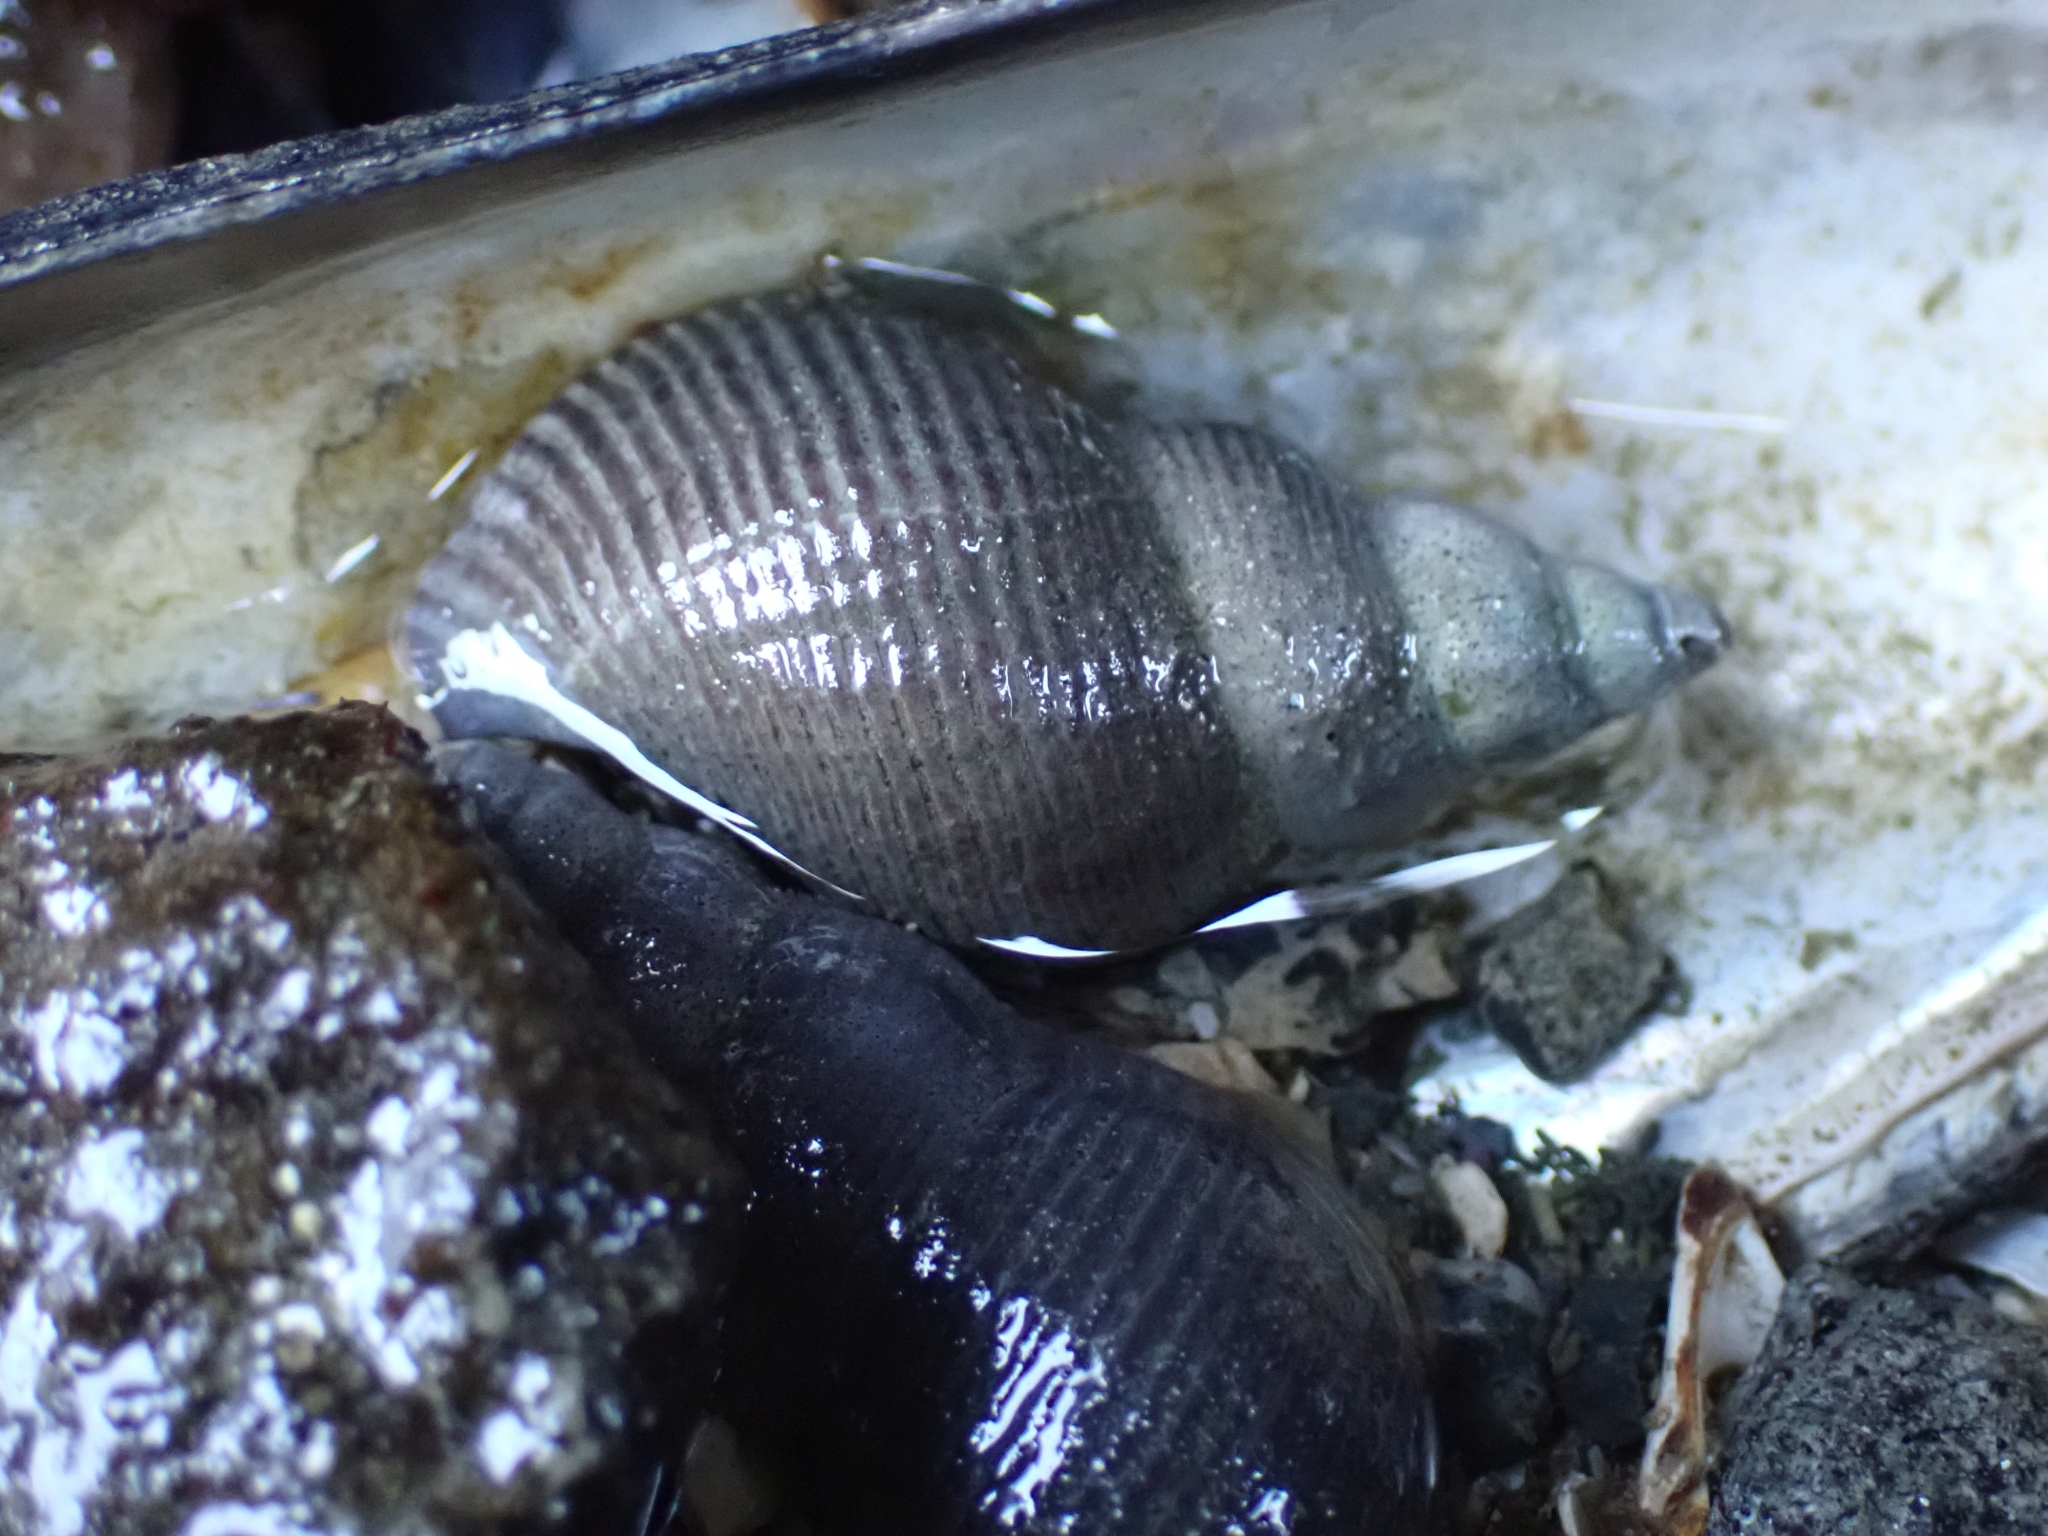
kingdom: Animalia
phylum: Mollusca
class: Gastropoda
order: Neogastropoda
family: Tudiclidae
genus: Lirabuccinum
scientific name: Lirabuccinum dirum
